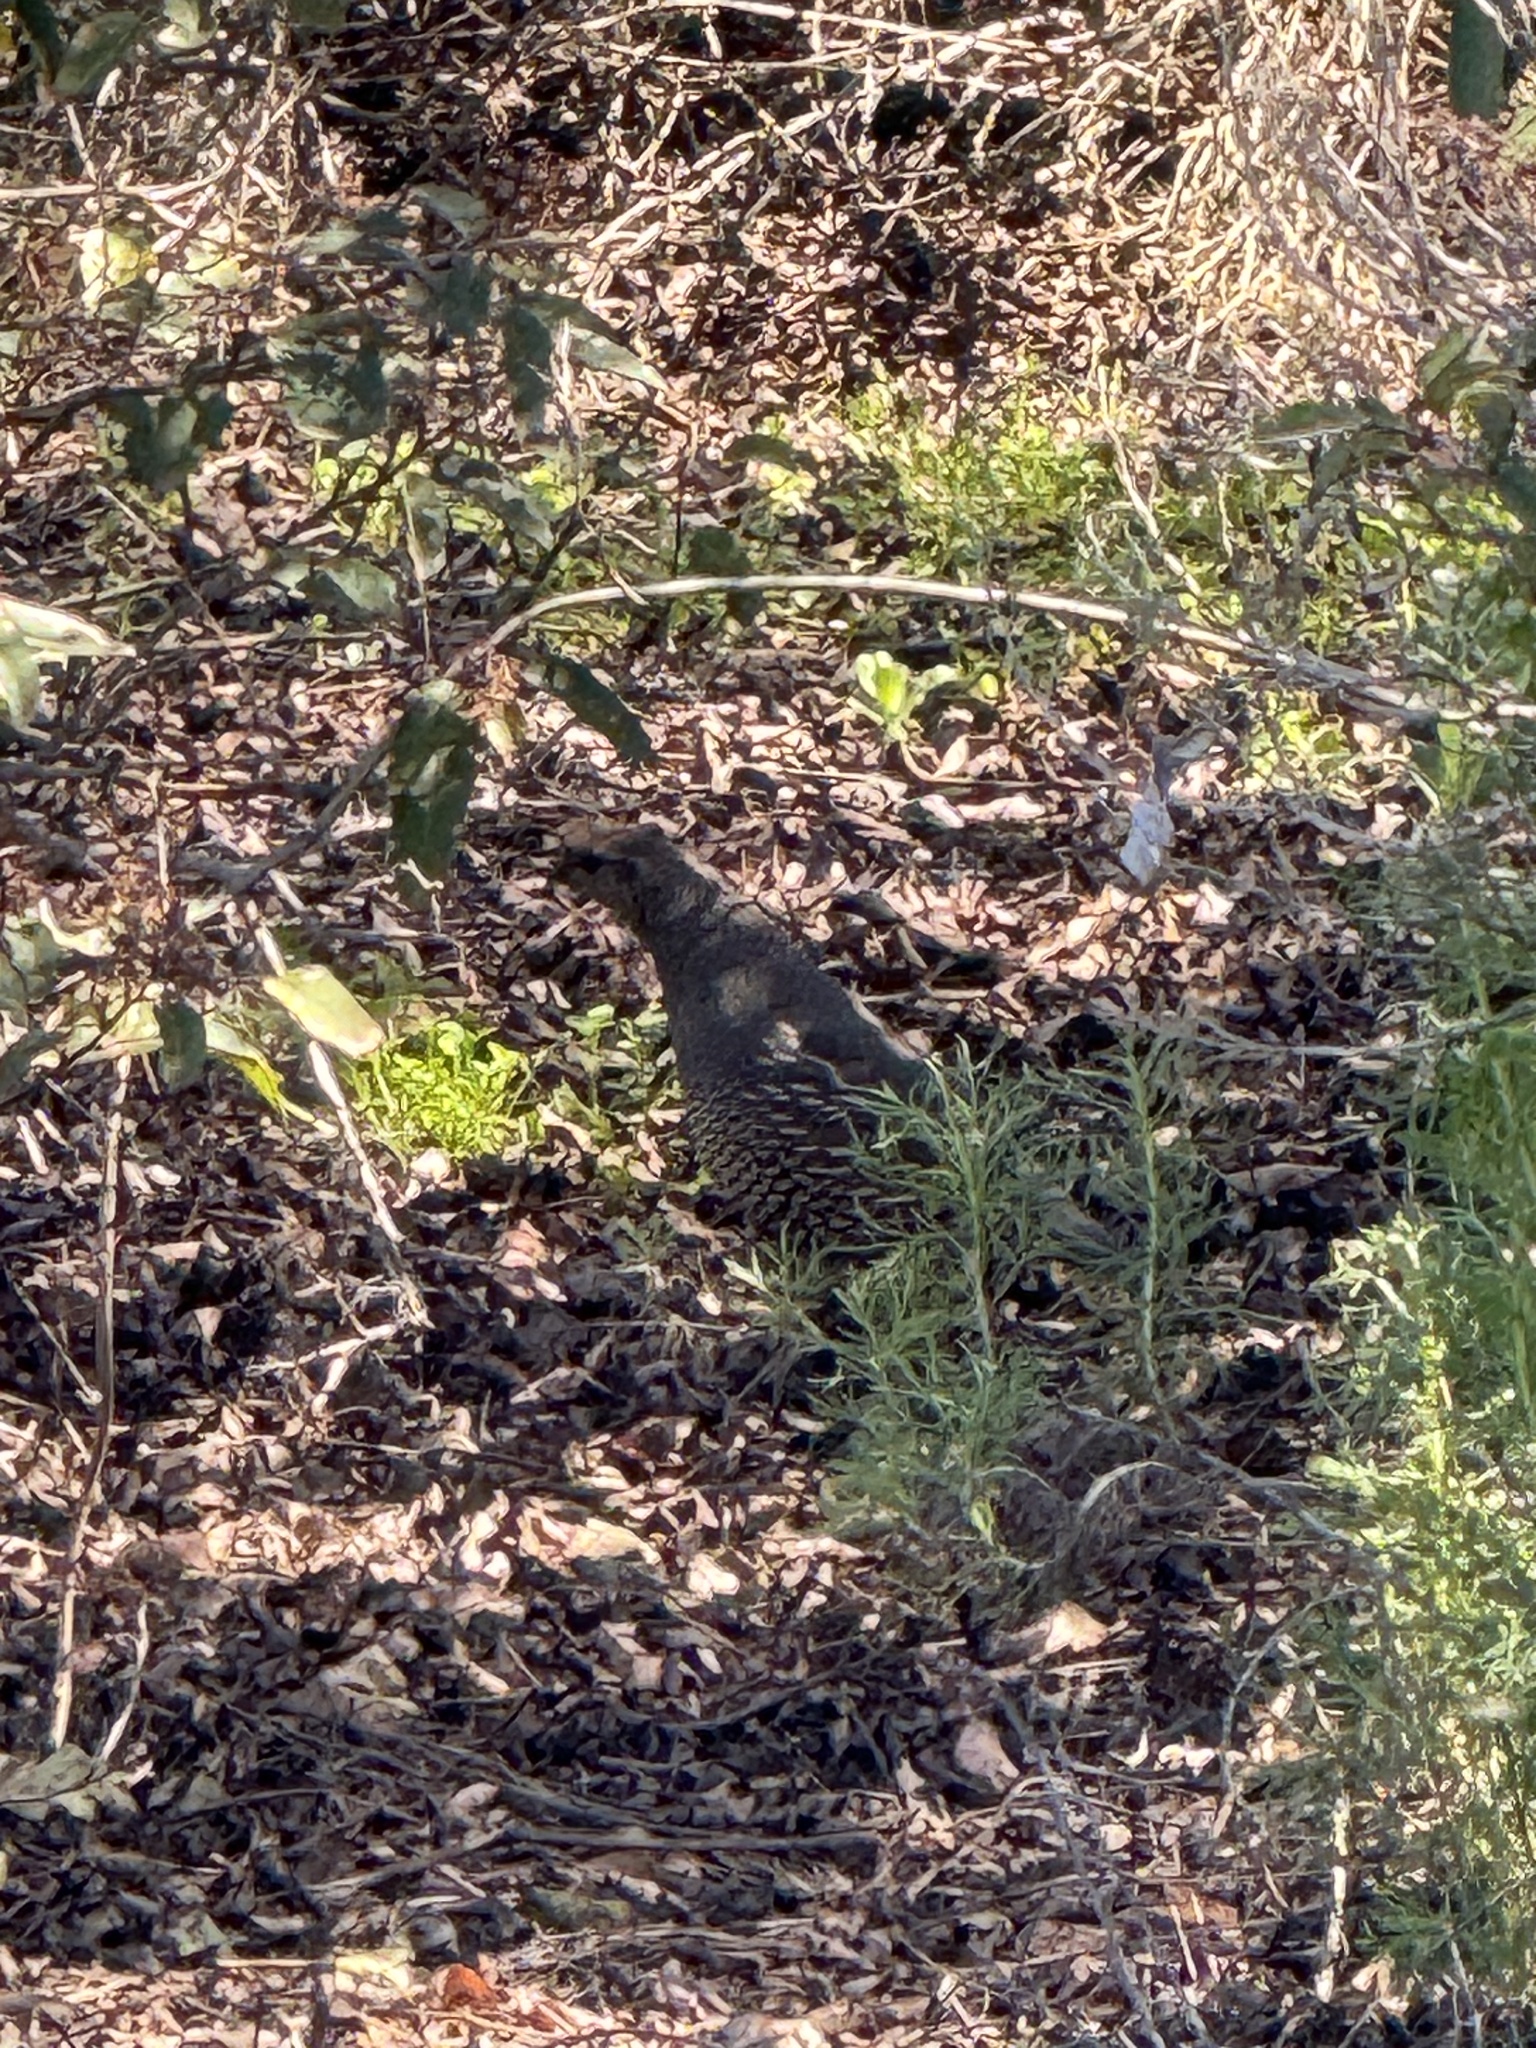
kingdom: Animalia
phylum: Chordata
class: Aves
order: Galliformes
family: Odontophoridae
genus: Callipepla
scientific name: Callipepla californica
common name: California quail
